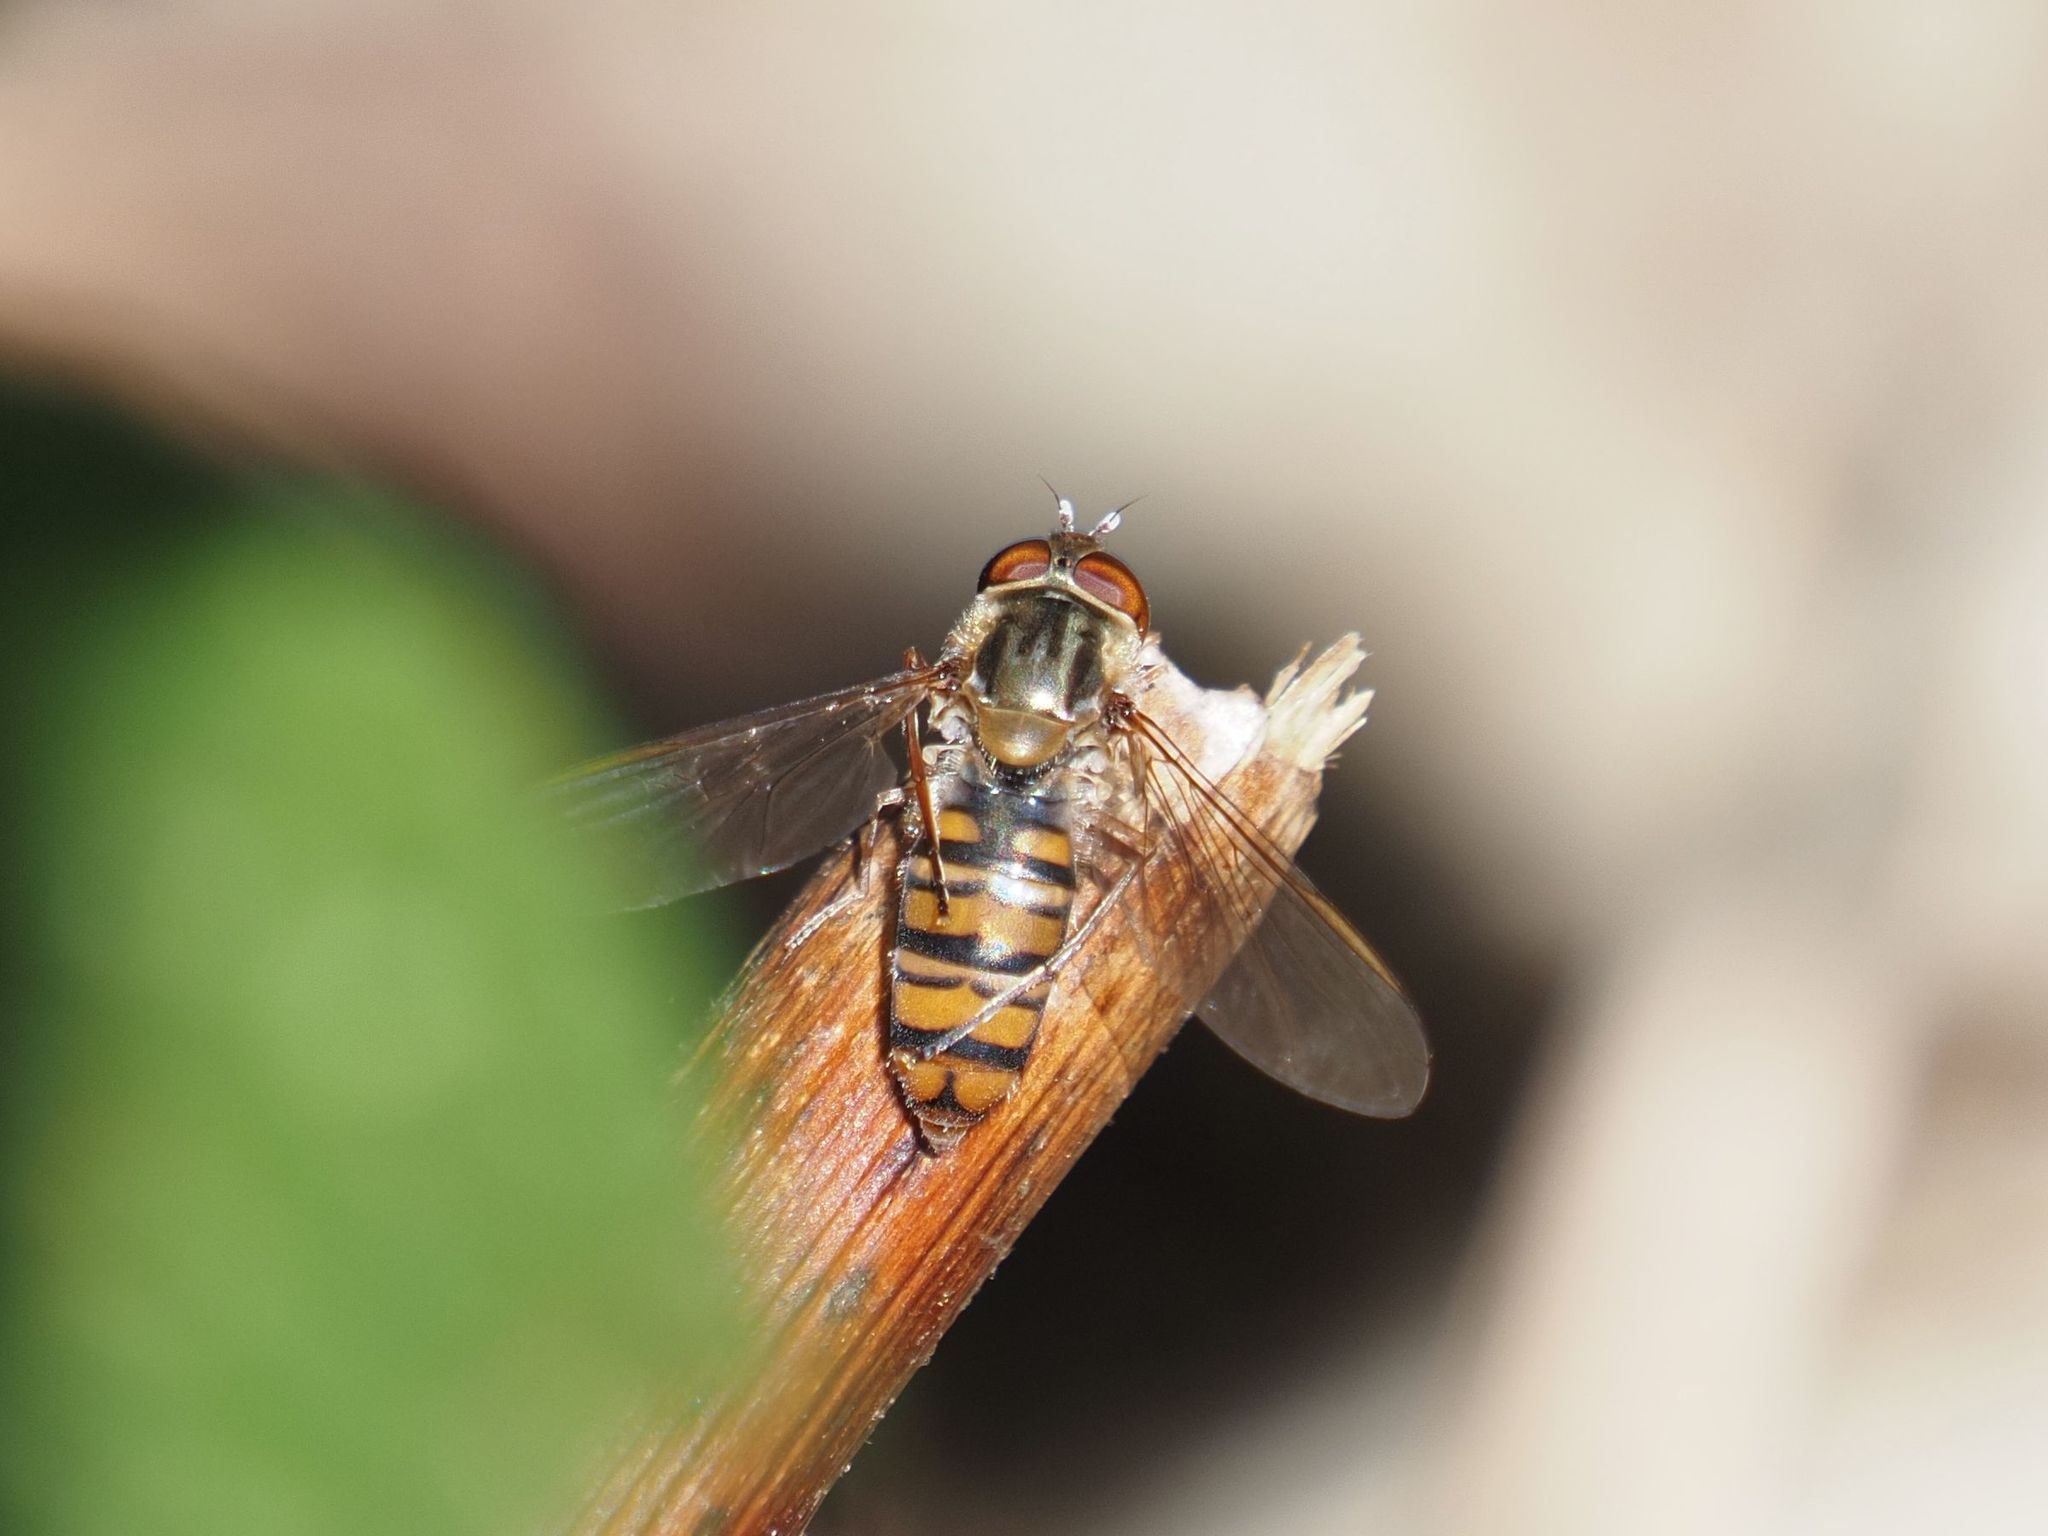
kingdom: Animalia
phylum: Arthropoda
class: Insecta
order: Diptera
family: Syrphidae
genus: Episyrphus
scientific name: Episyrphus balteatus
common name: Marmalade hoverfly
